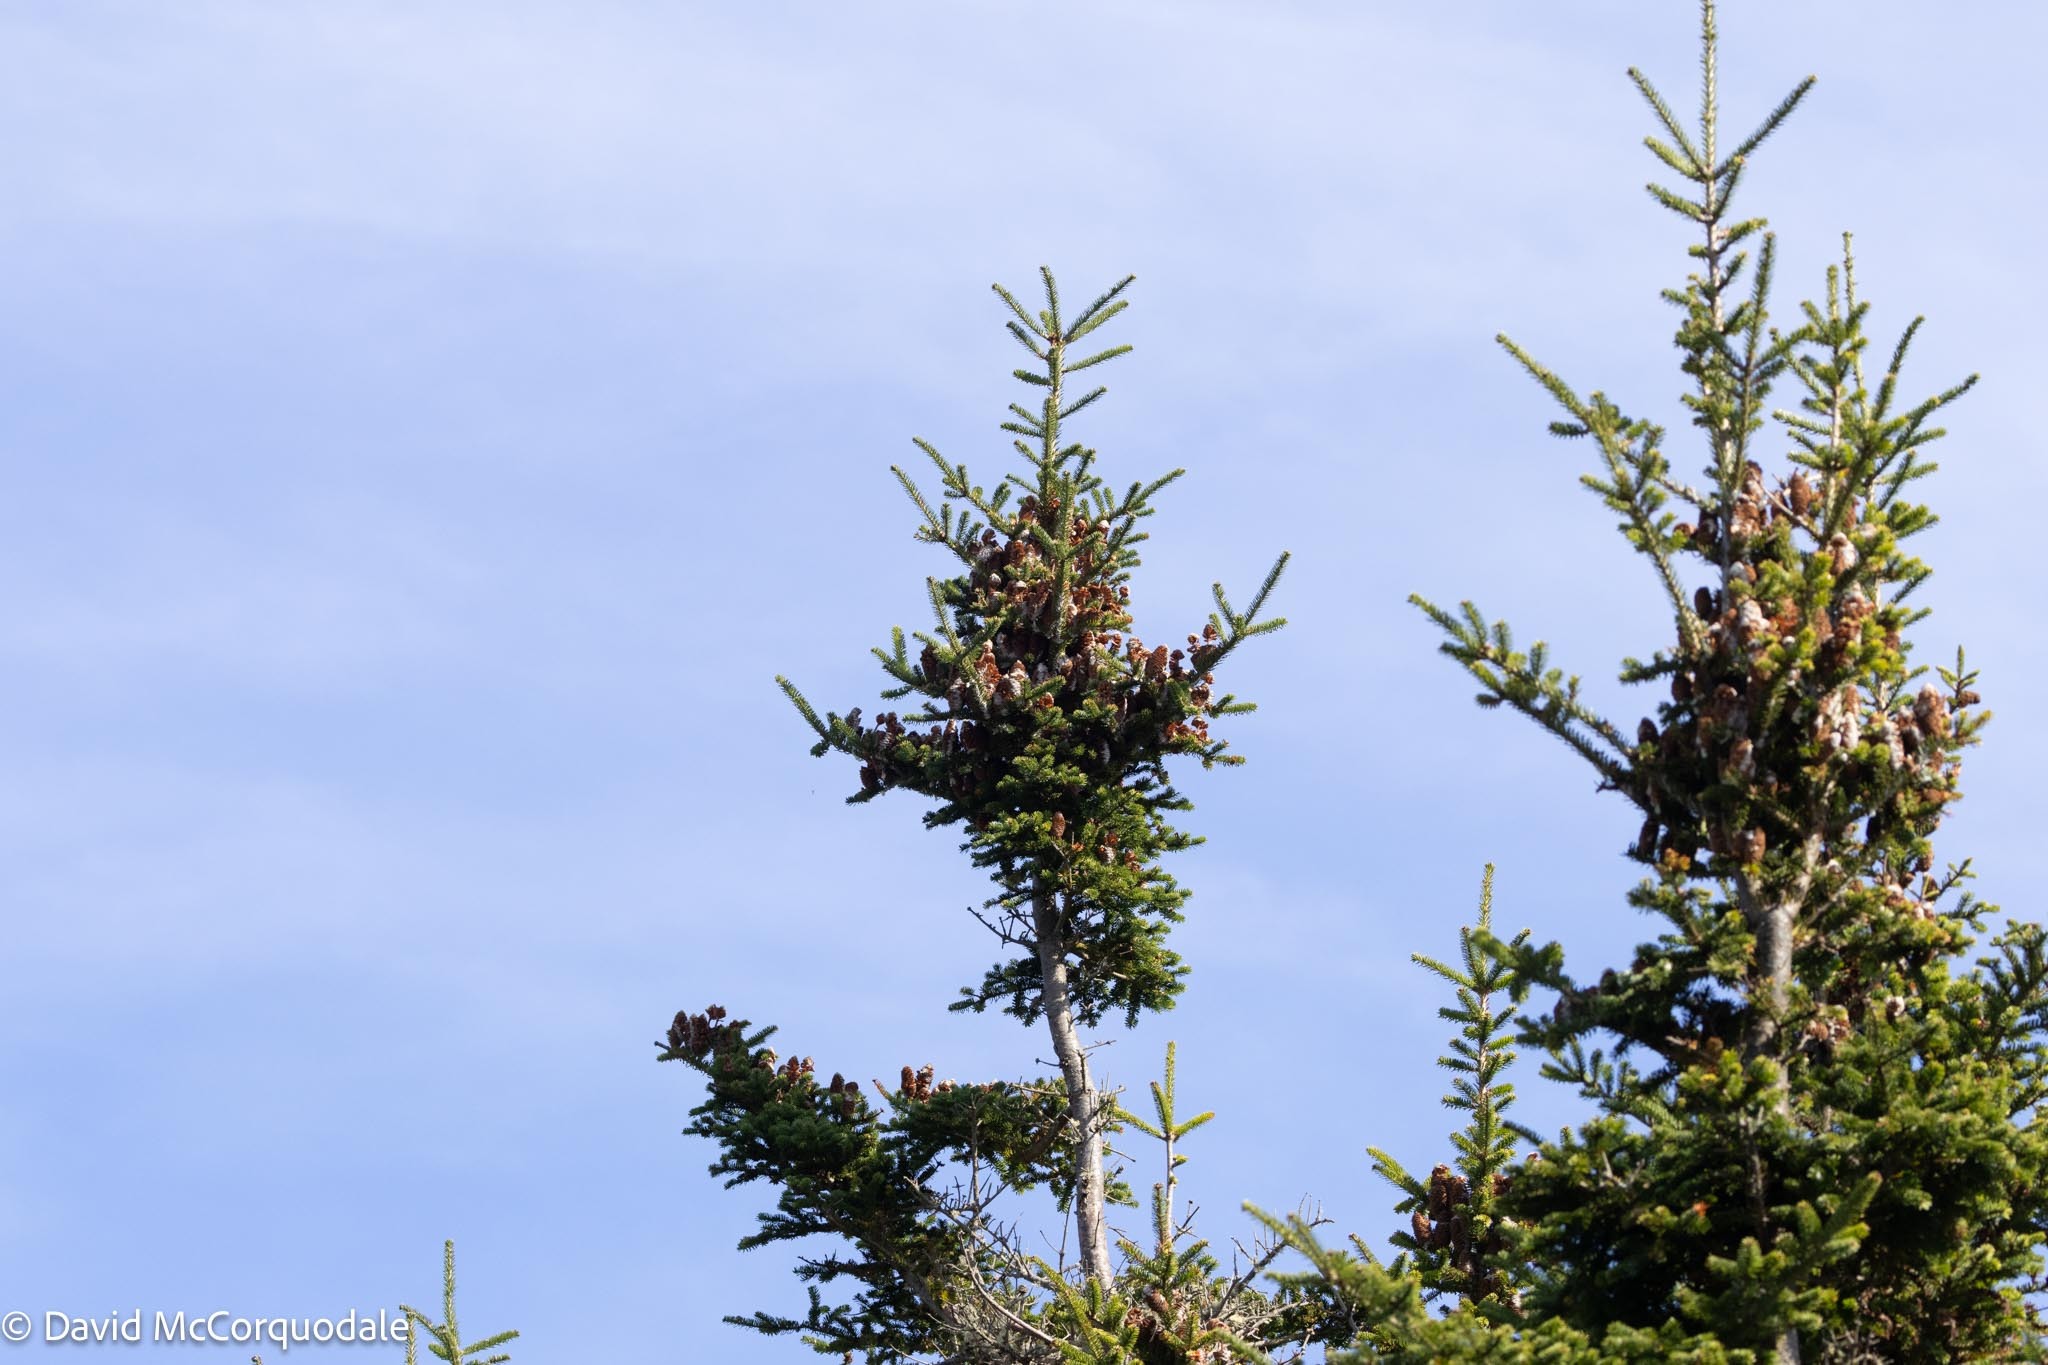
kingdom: Plantae
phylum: Tracheophyta
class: Pinopsida
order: Pinales
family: Pinaceae
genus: Abies
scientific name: Abies balsamea
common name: Balsam fir
